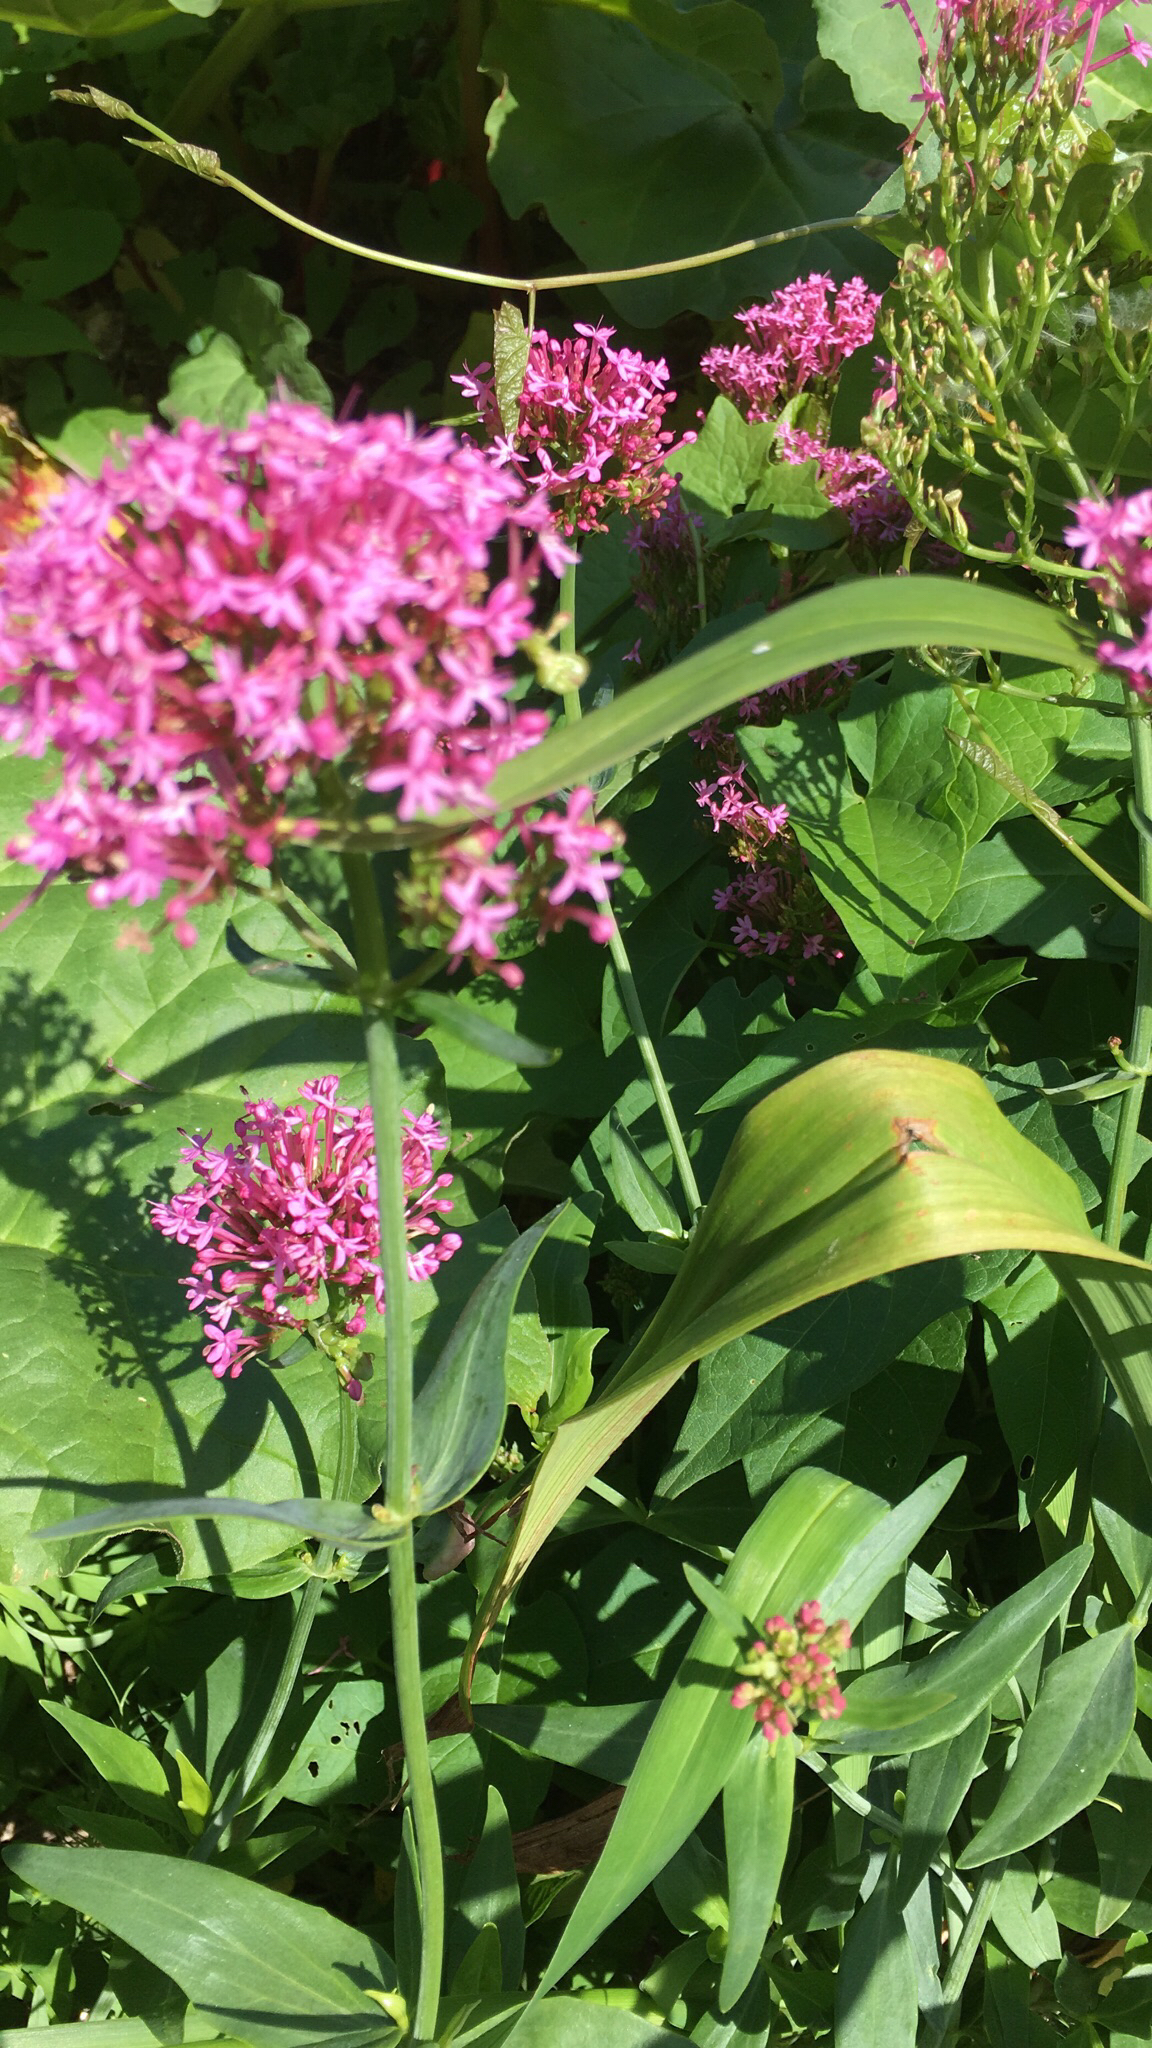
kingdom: Plantae
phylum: Tracheophyta
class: Magnoliopsida
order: Dipsacales
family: Caprifoliaceae
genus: Centranthus
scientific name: Centranthus ruber
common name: Red valerian
